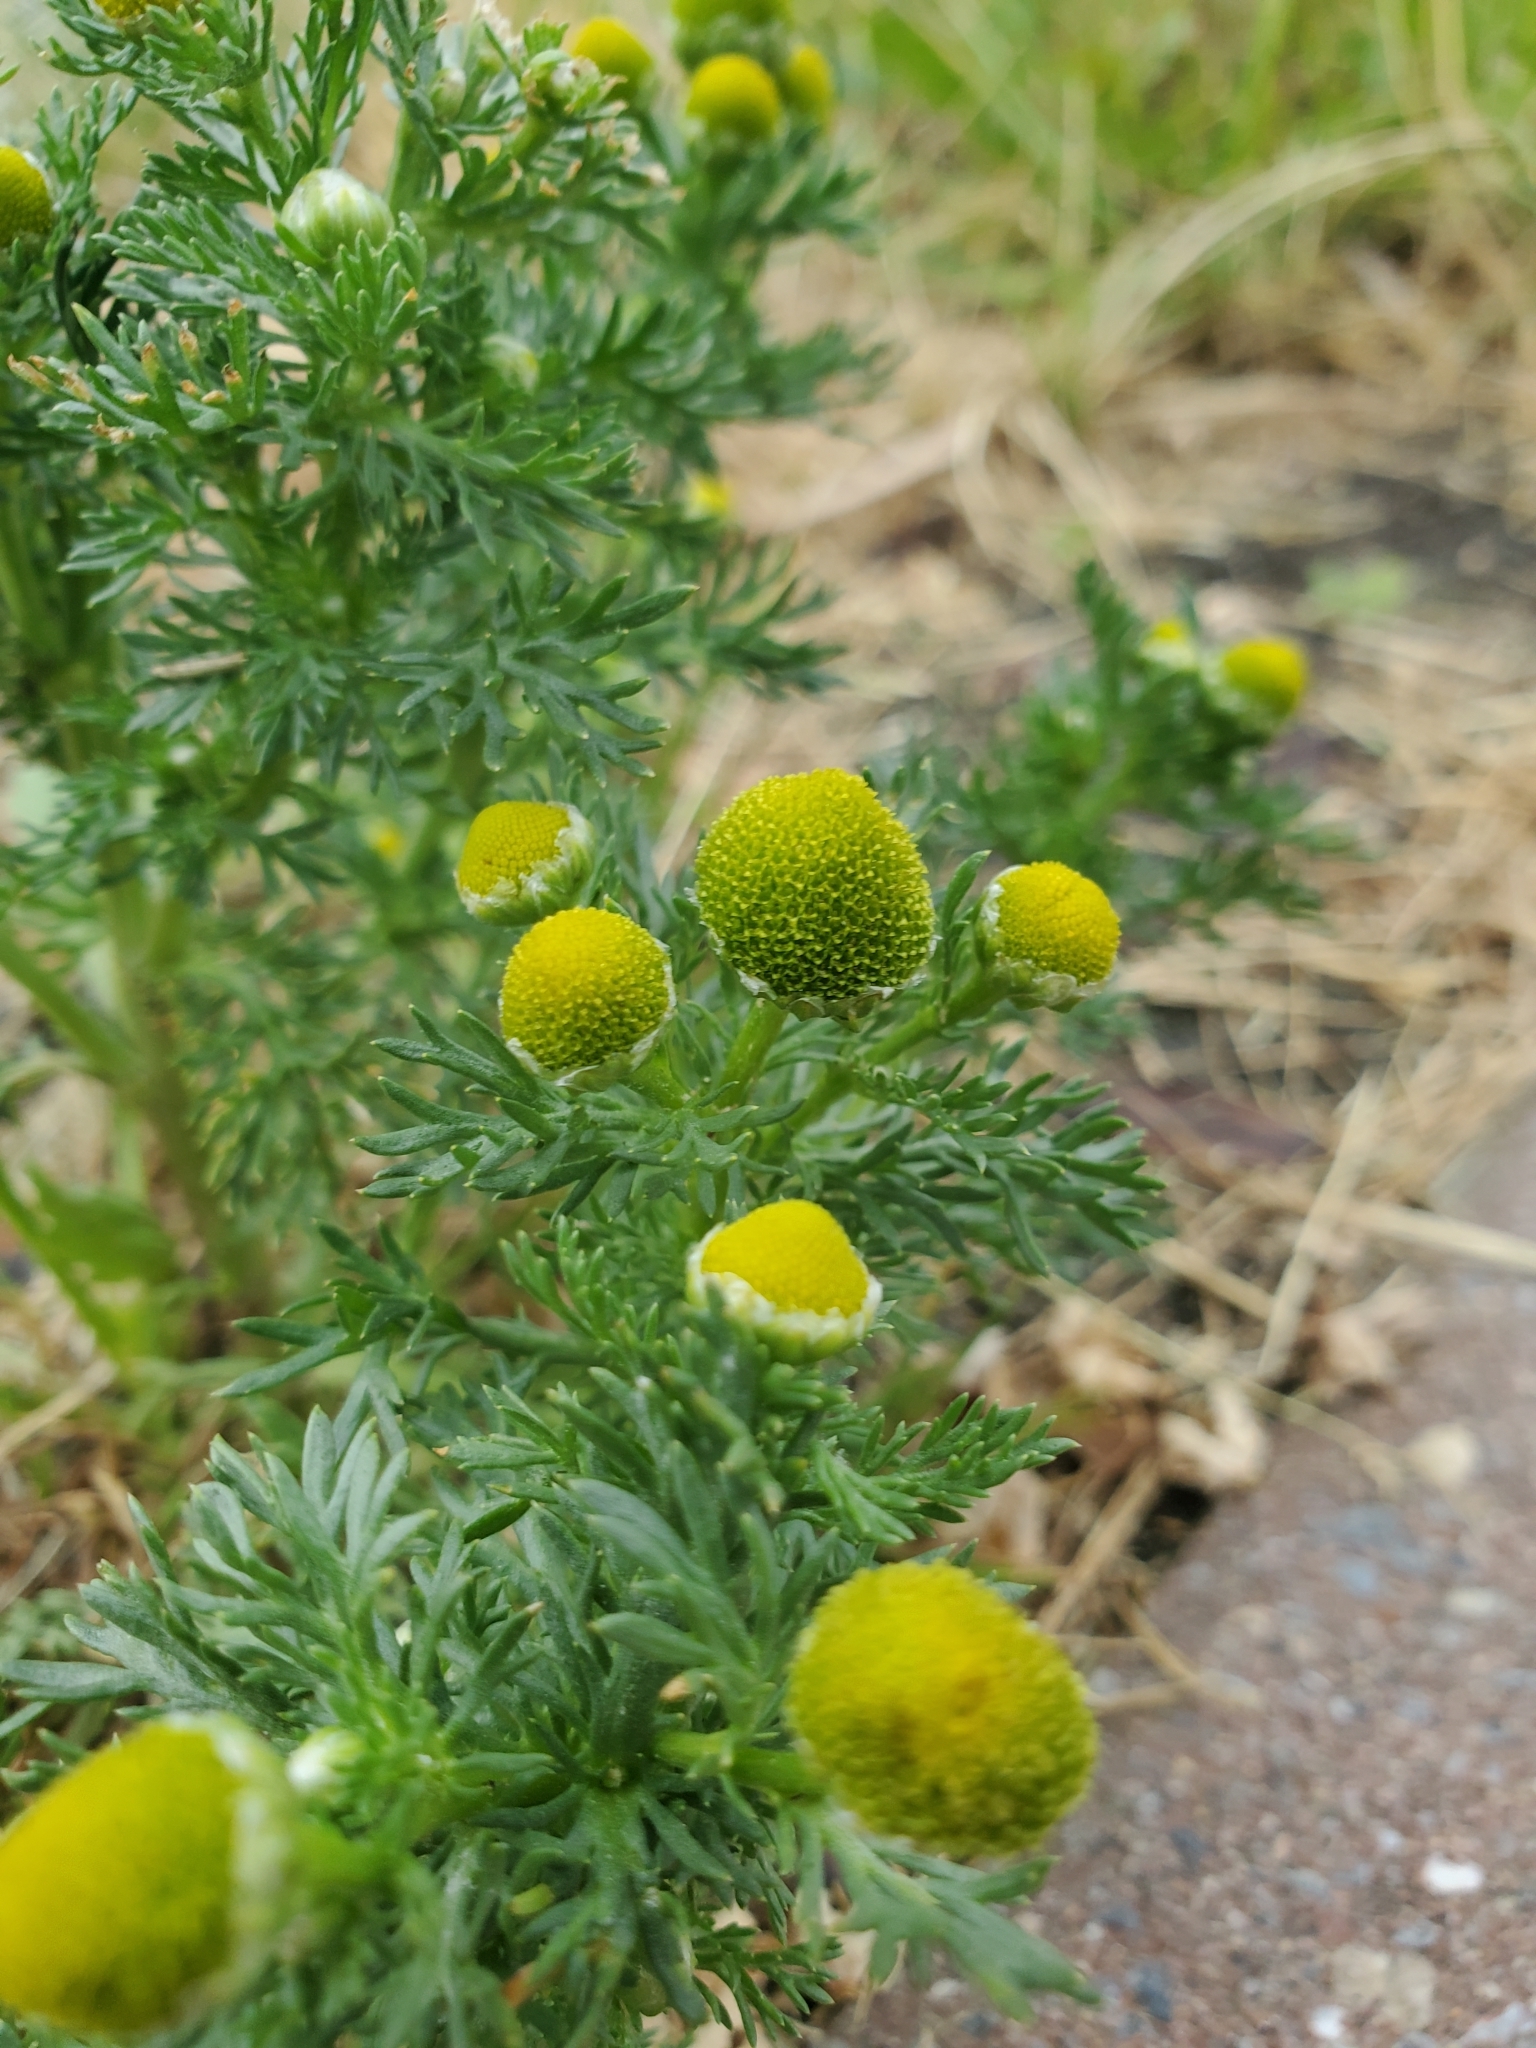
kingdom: Plantae
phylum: Tracheophyta
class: Magnoliopsida
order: Asterales
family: Asteraceae
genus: Matricaria
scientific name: Matricaria discoidea
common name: Disc mayweed
